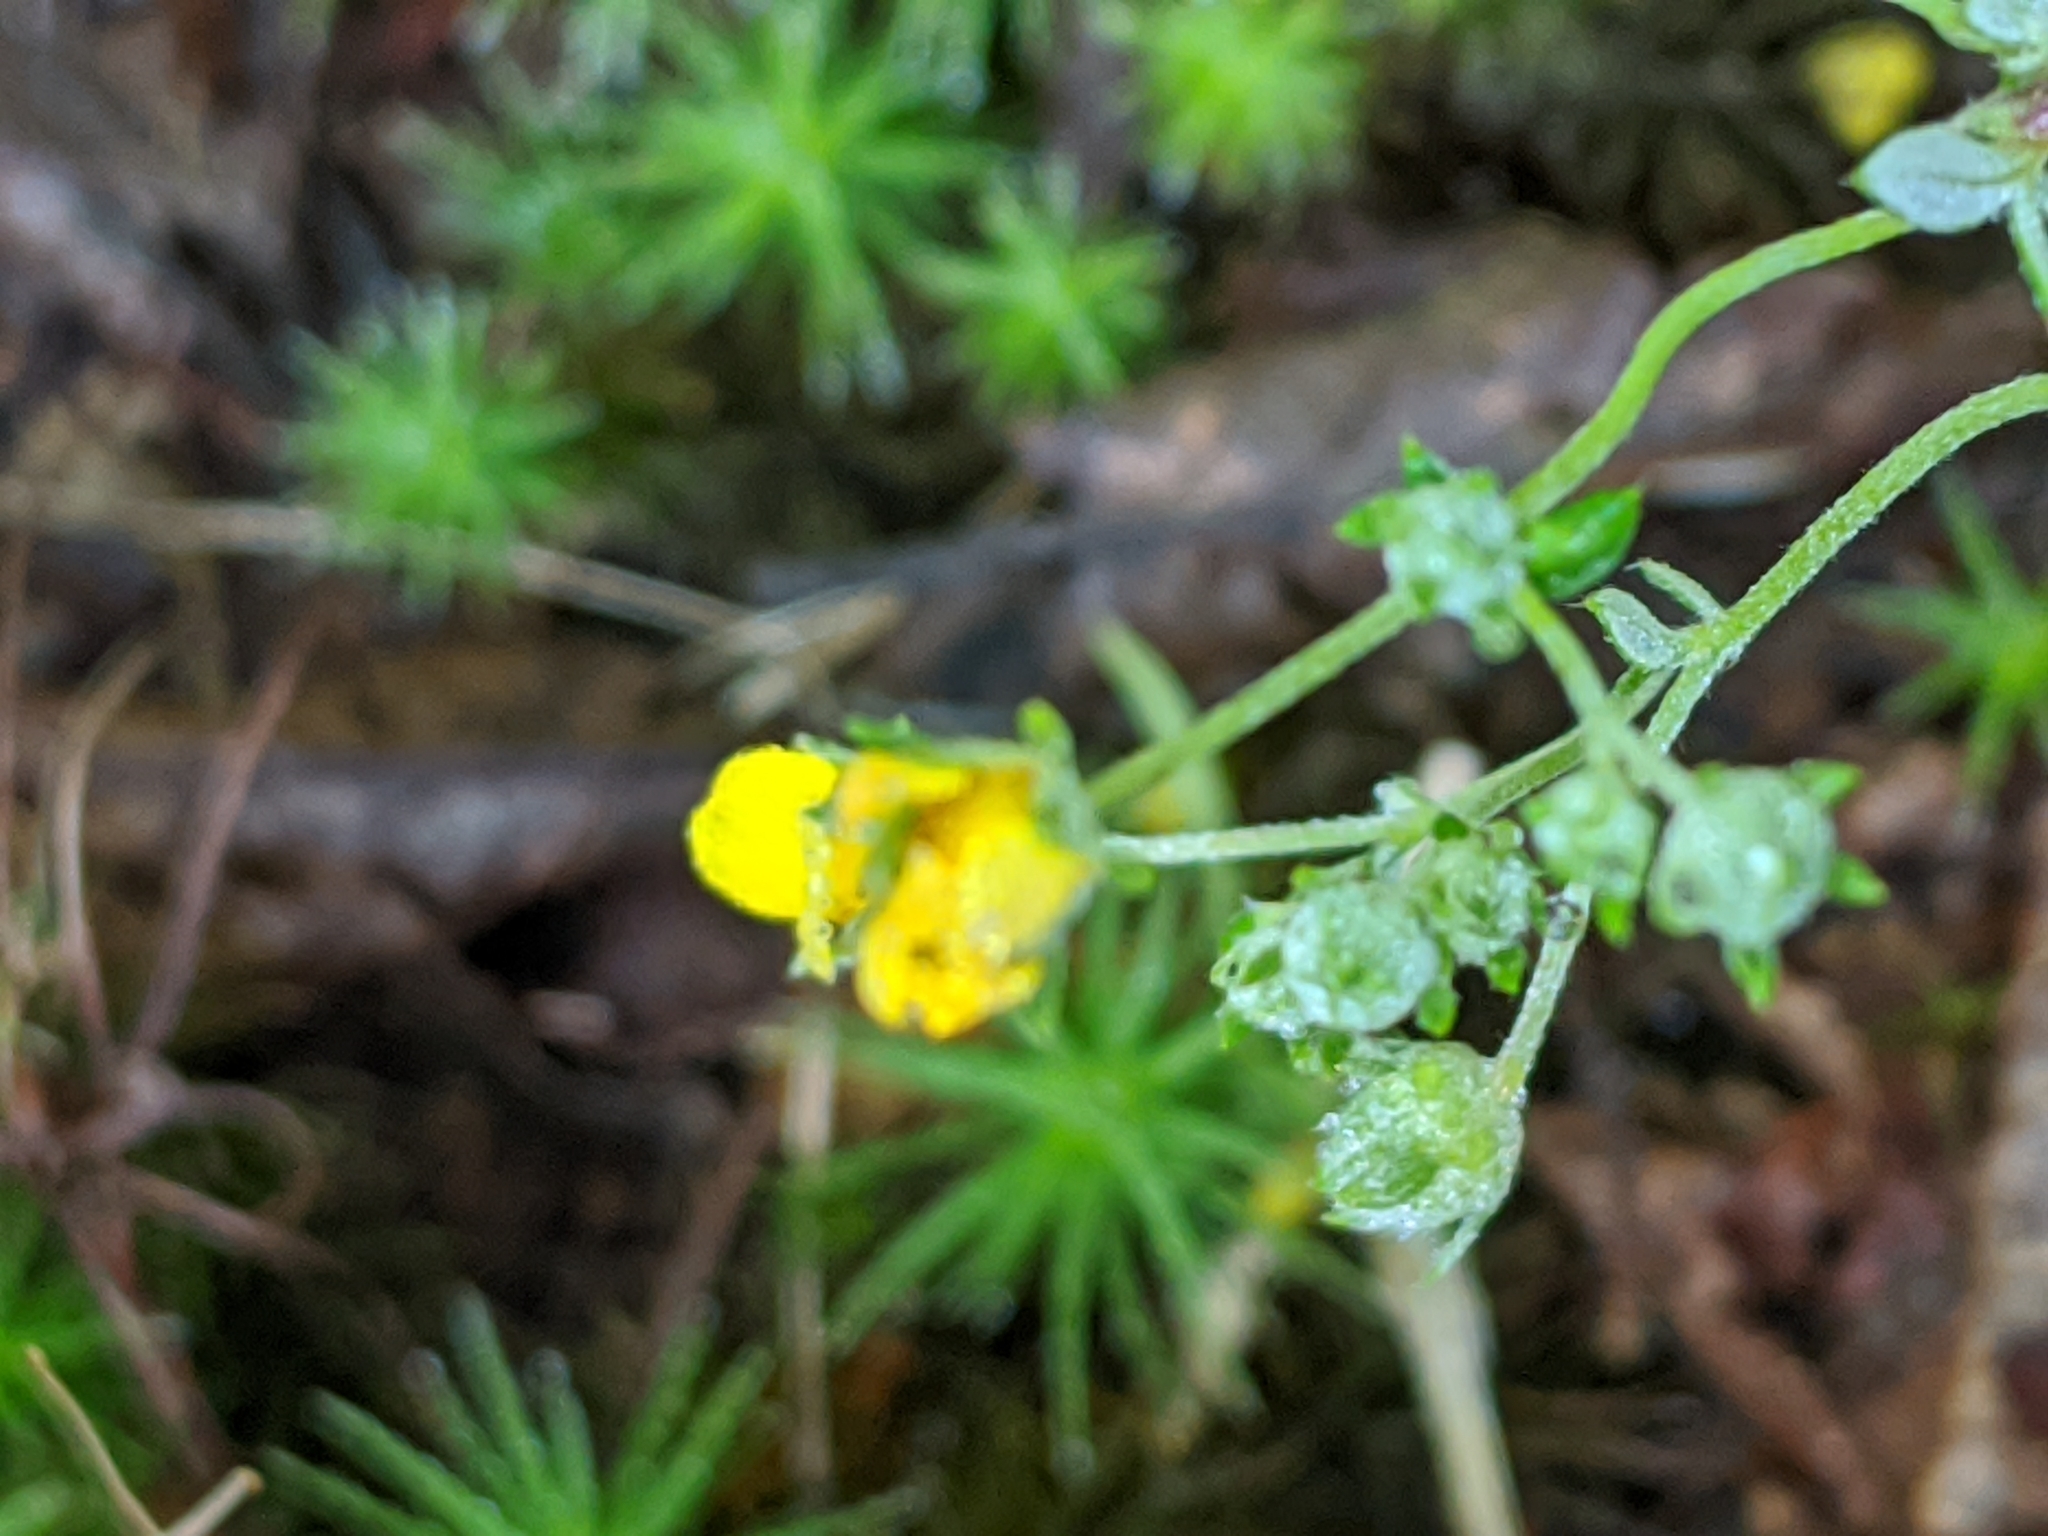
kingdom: Plantae
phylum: Tracheophyta
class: Magnoliopsida
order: Rosales
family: Rosaceae
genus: Potentilla
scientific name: Potentilla argentea
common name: Hoary cinquefoil
